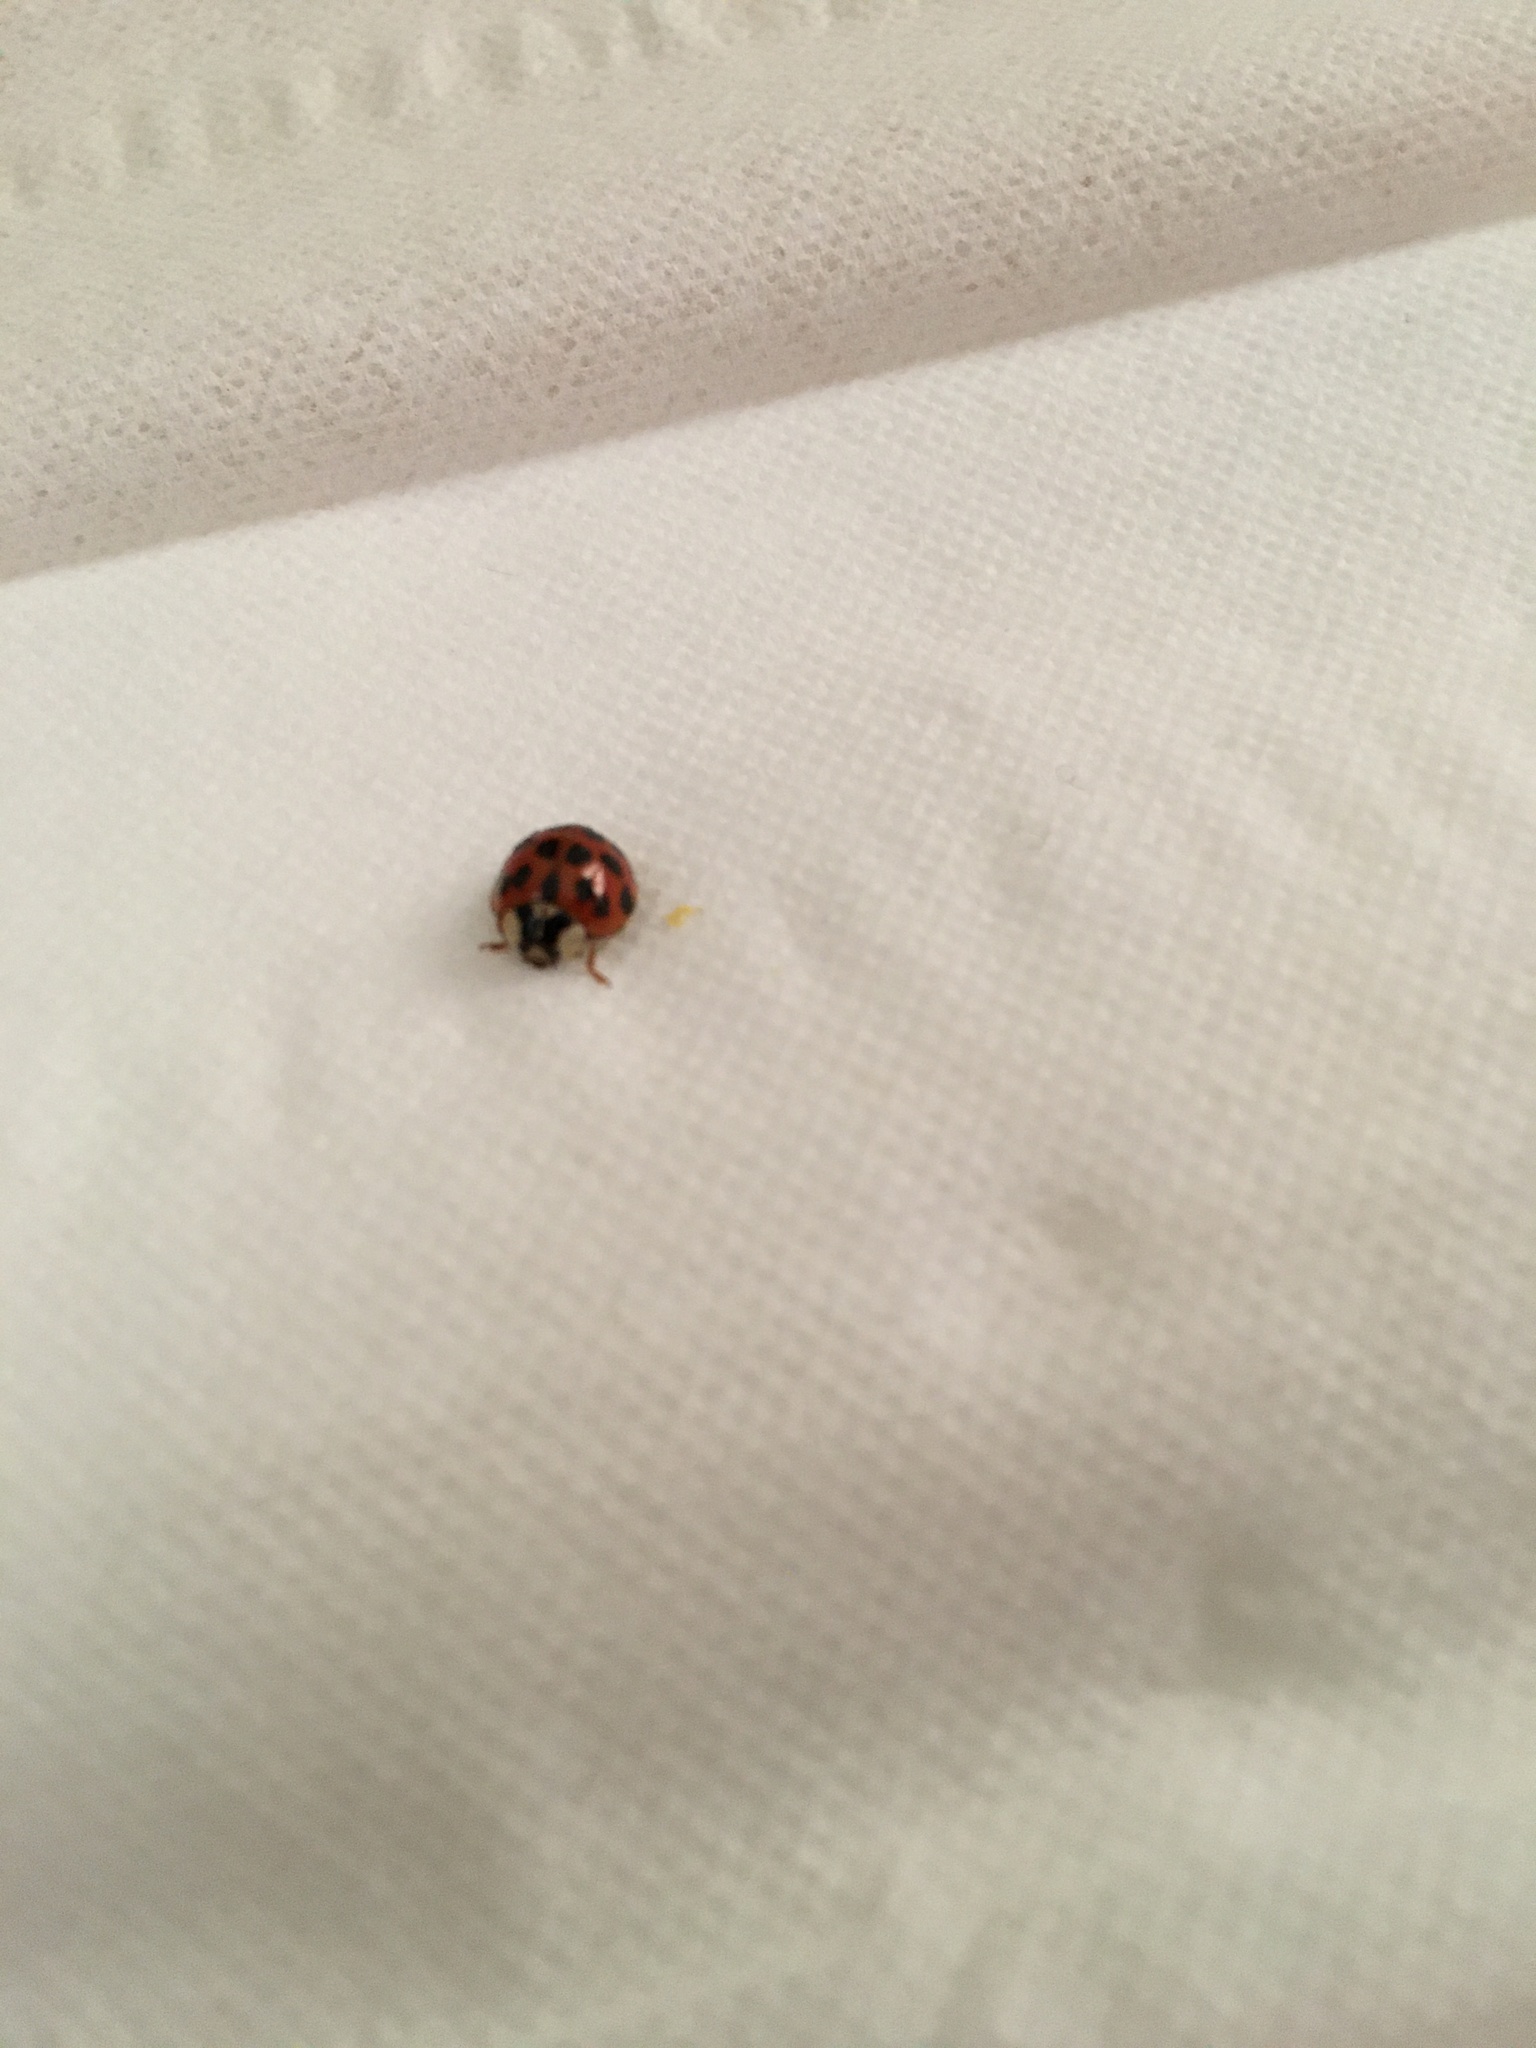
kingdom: Animalia
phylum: Arthropoda
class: Insecta
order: Coleoptera
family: Coccinellidae
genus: Harmonia
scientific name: Harmonia axyridis
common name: Harlequin ladybird
